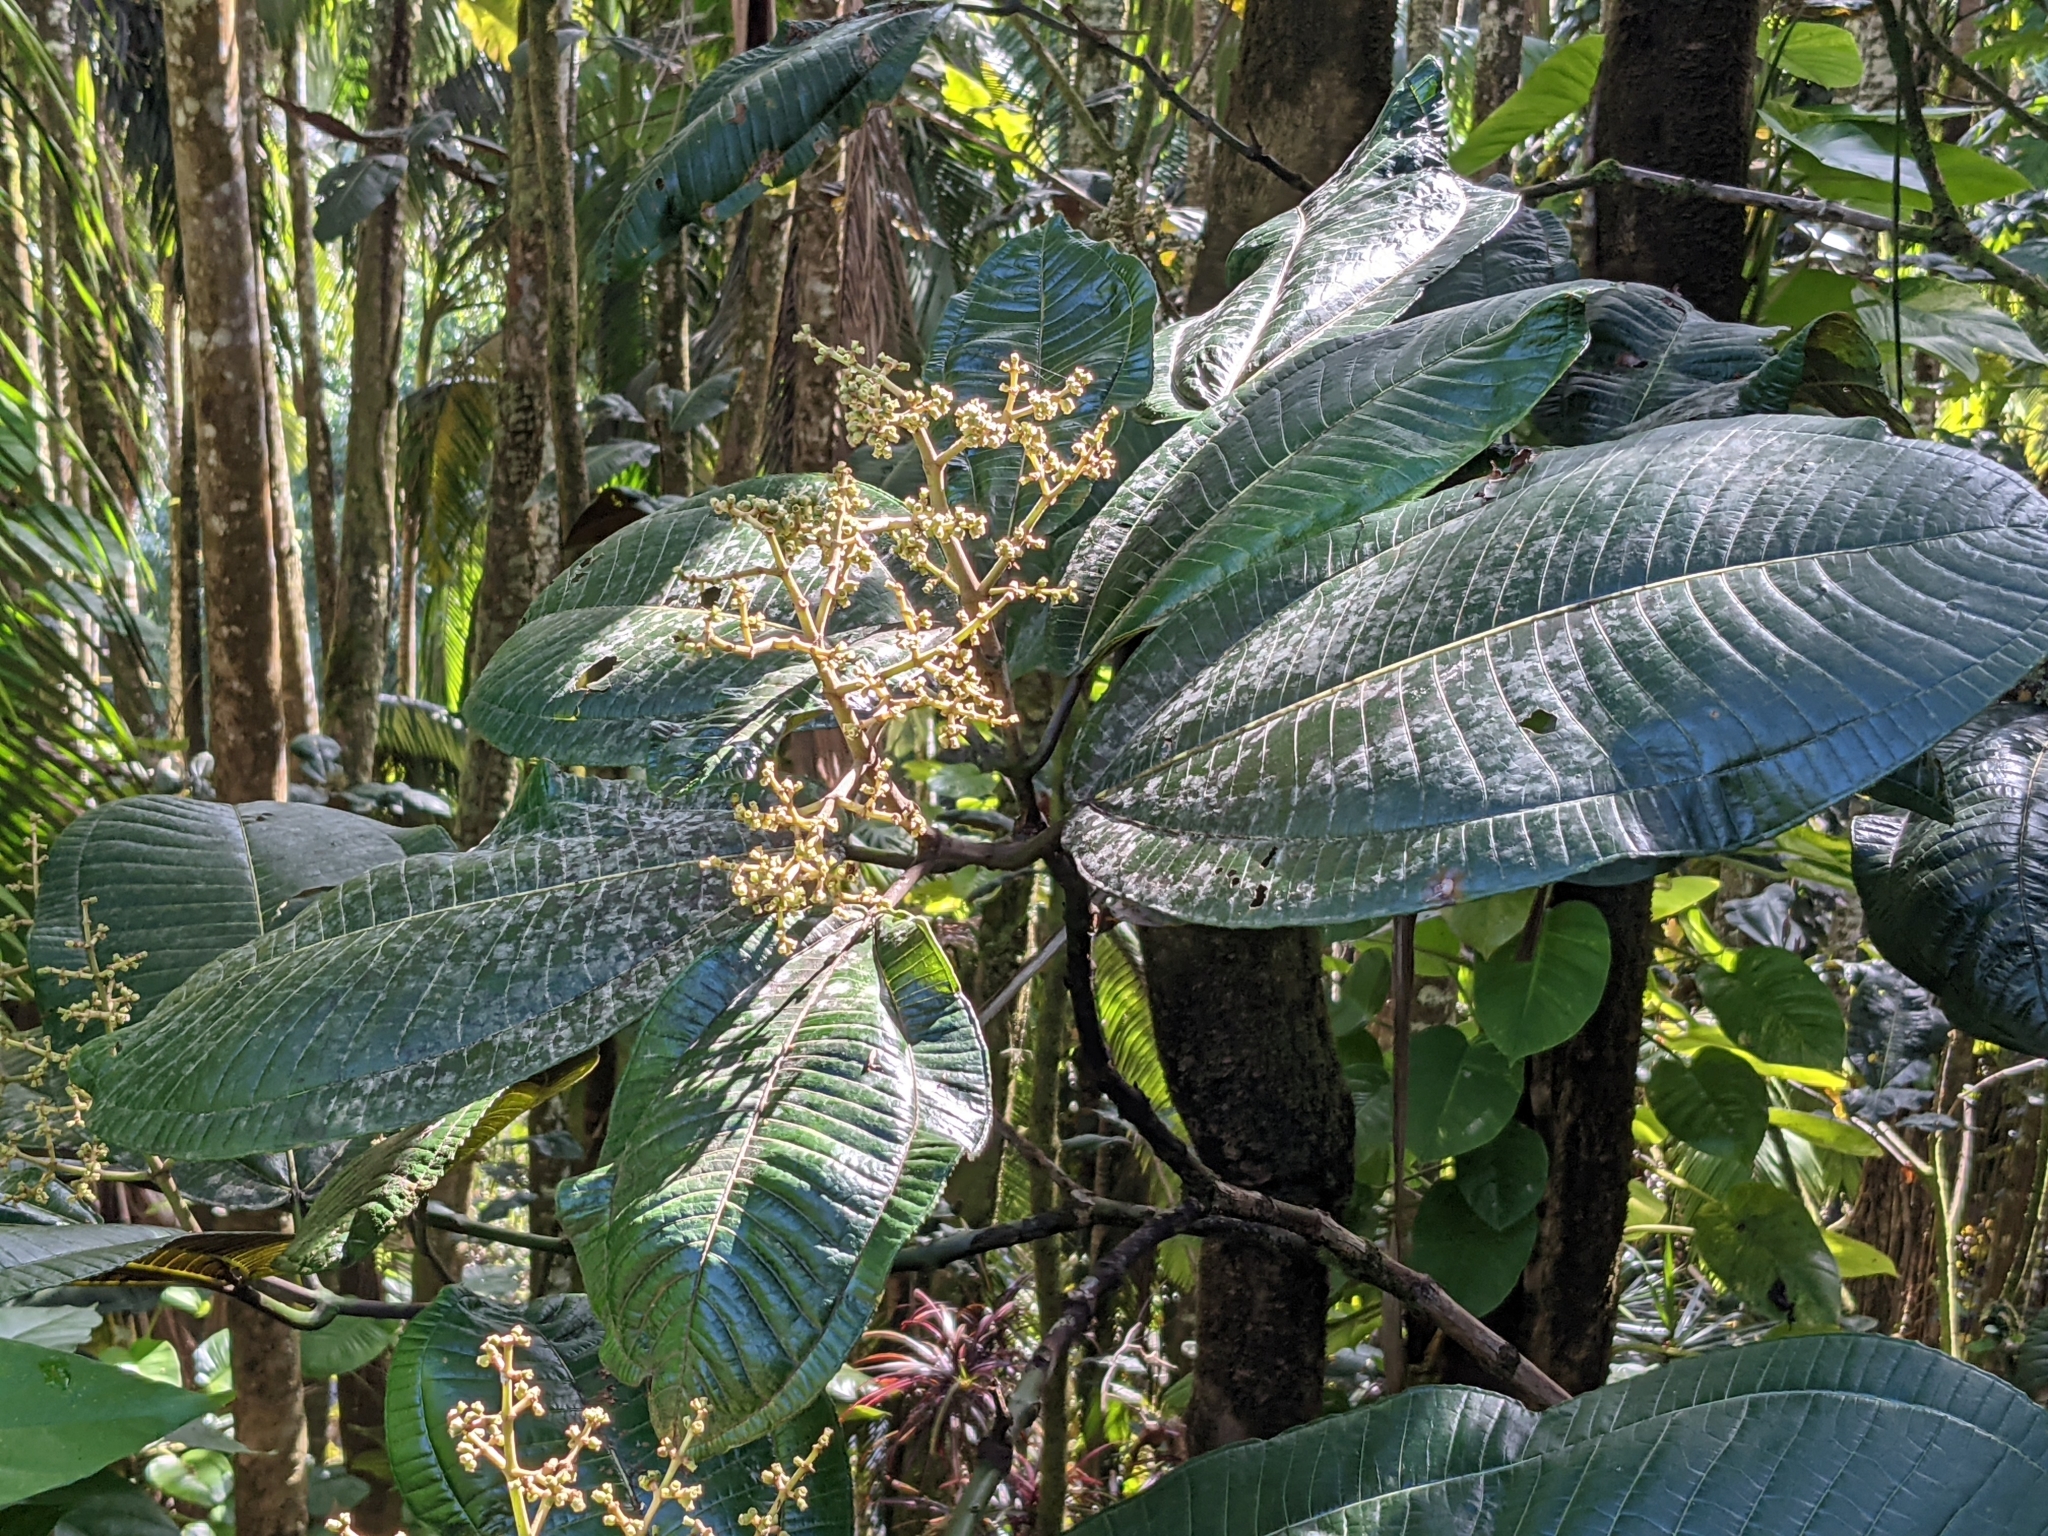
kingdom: Plantae
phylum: Tracheophyta
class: Magnoliopsida
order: Myrtales
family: Melastomataceae
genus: Miconia
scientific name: Miconia calvescens
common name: Purple plague
